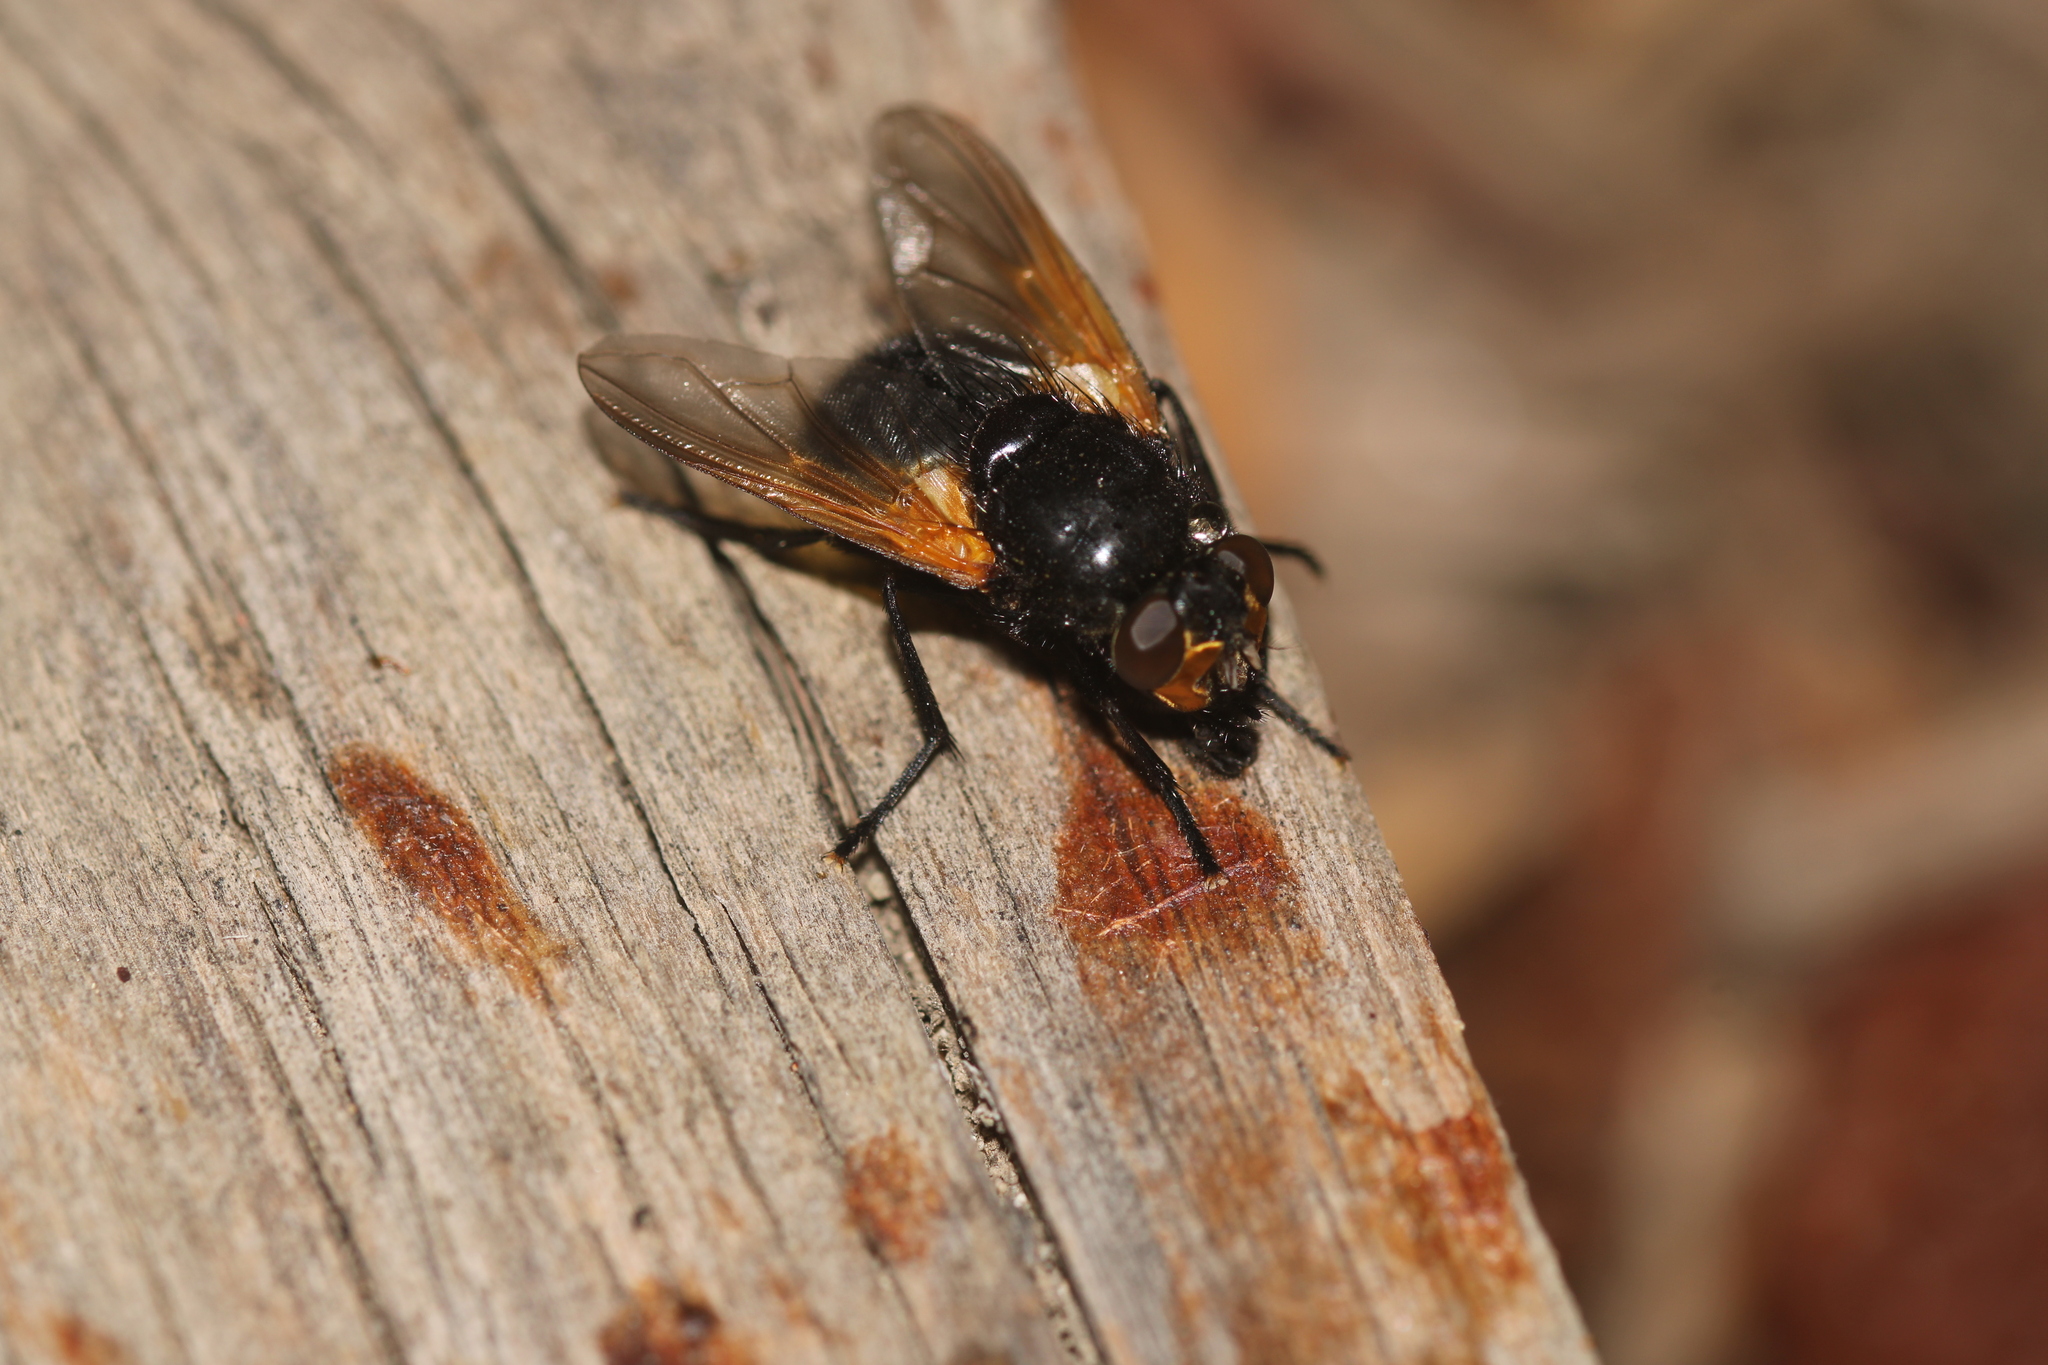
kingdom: Animalia
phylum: Arthropoda
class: Insecta
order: Diptera
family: Muscidae
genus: Mesembrina
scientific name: Mesembrina meridiana
